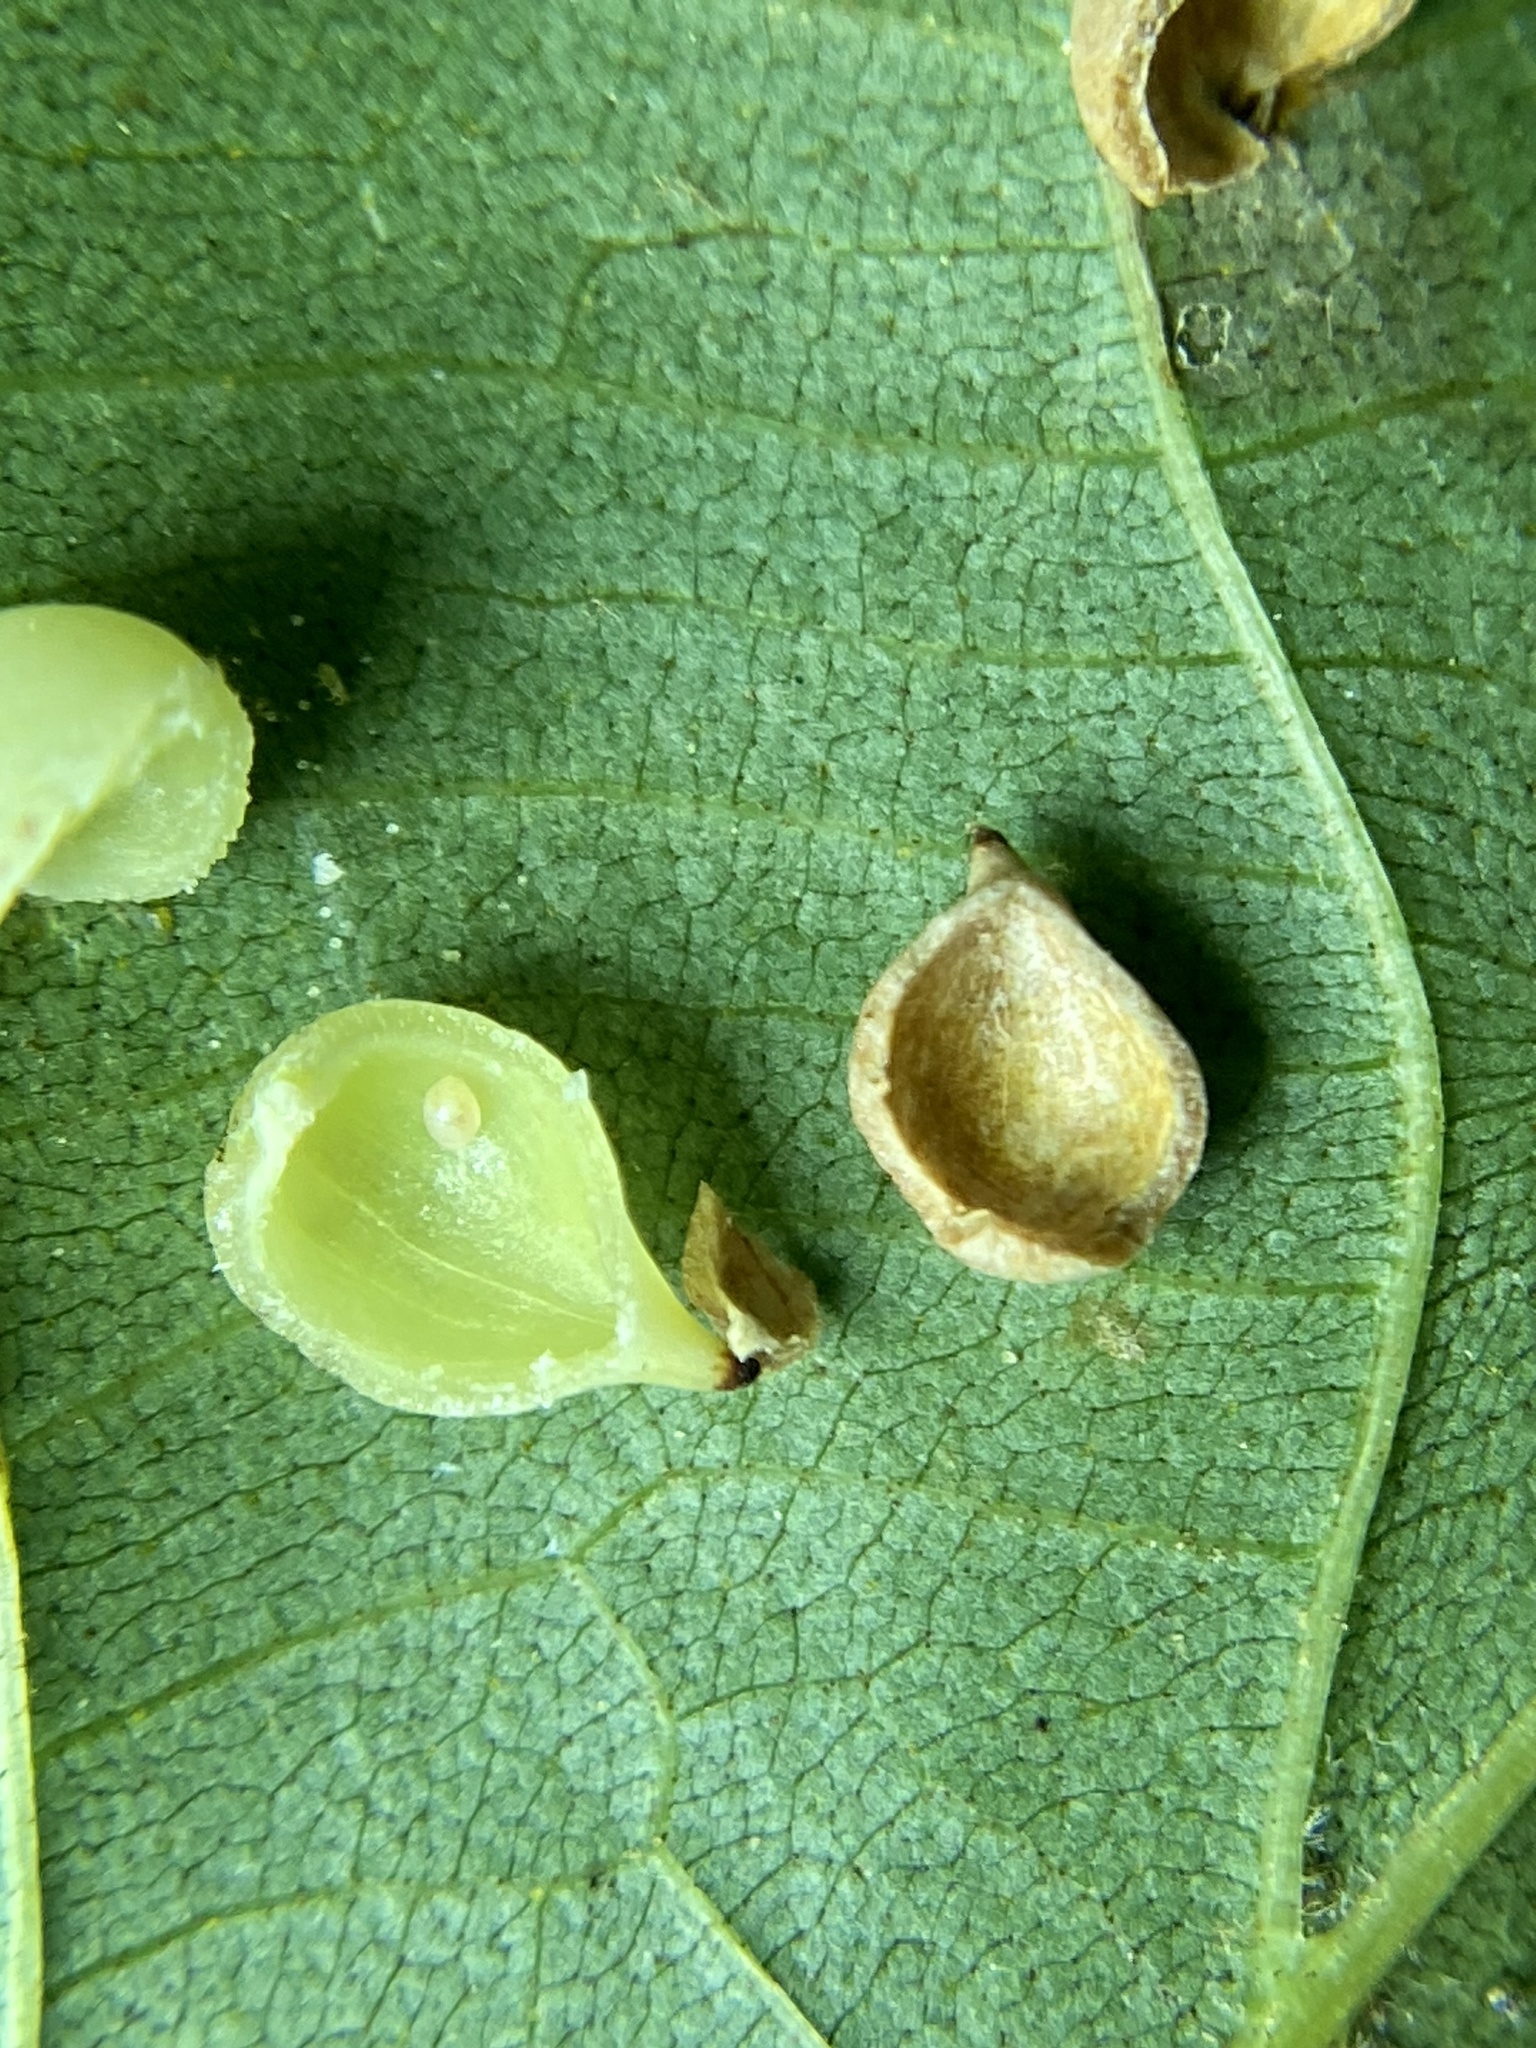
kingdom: Animalia
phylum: Arthropoda
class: Insecta
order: Diptera
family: Cecidomyiidae
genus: Caryomyia
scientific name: Caryomyia caryaecola
